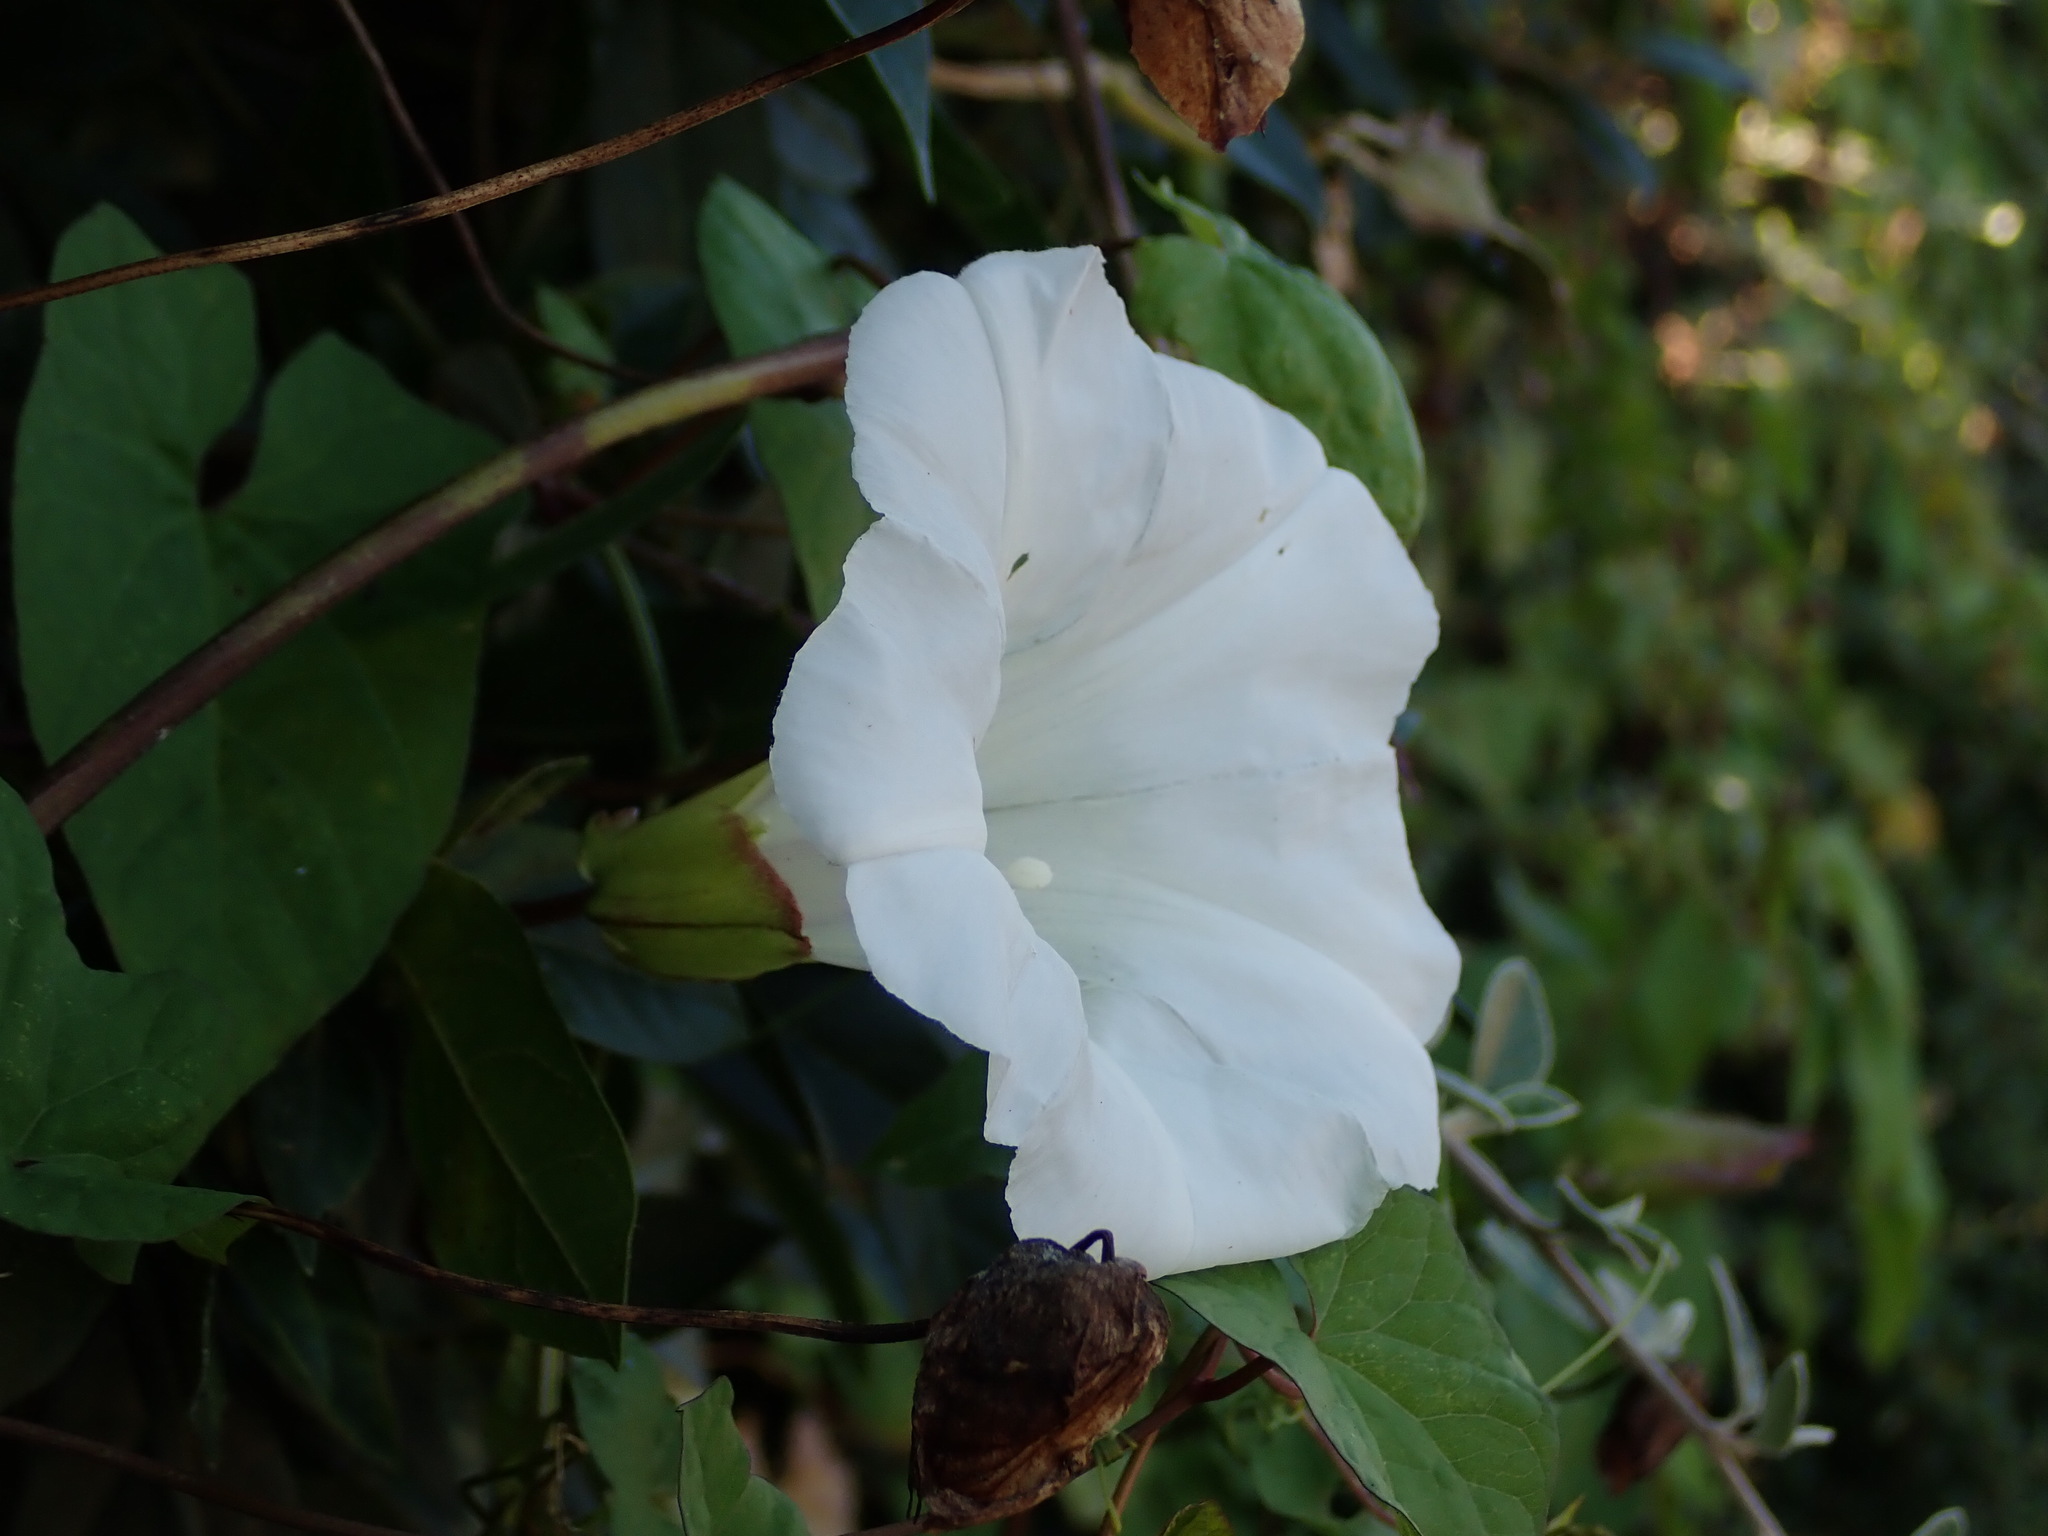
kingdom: Plantae
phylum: Tracheophyta
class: Magnoliopsida
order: Solanales
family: Convolvulaceae
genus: Calystegia
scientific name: Calystegia silvatica
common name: Large bindweed
